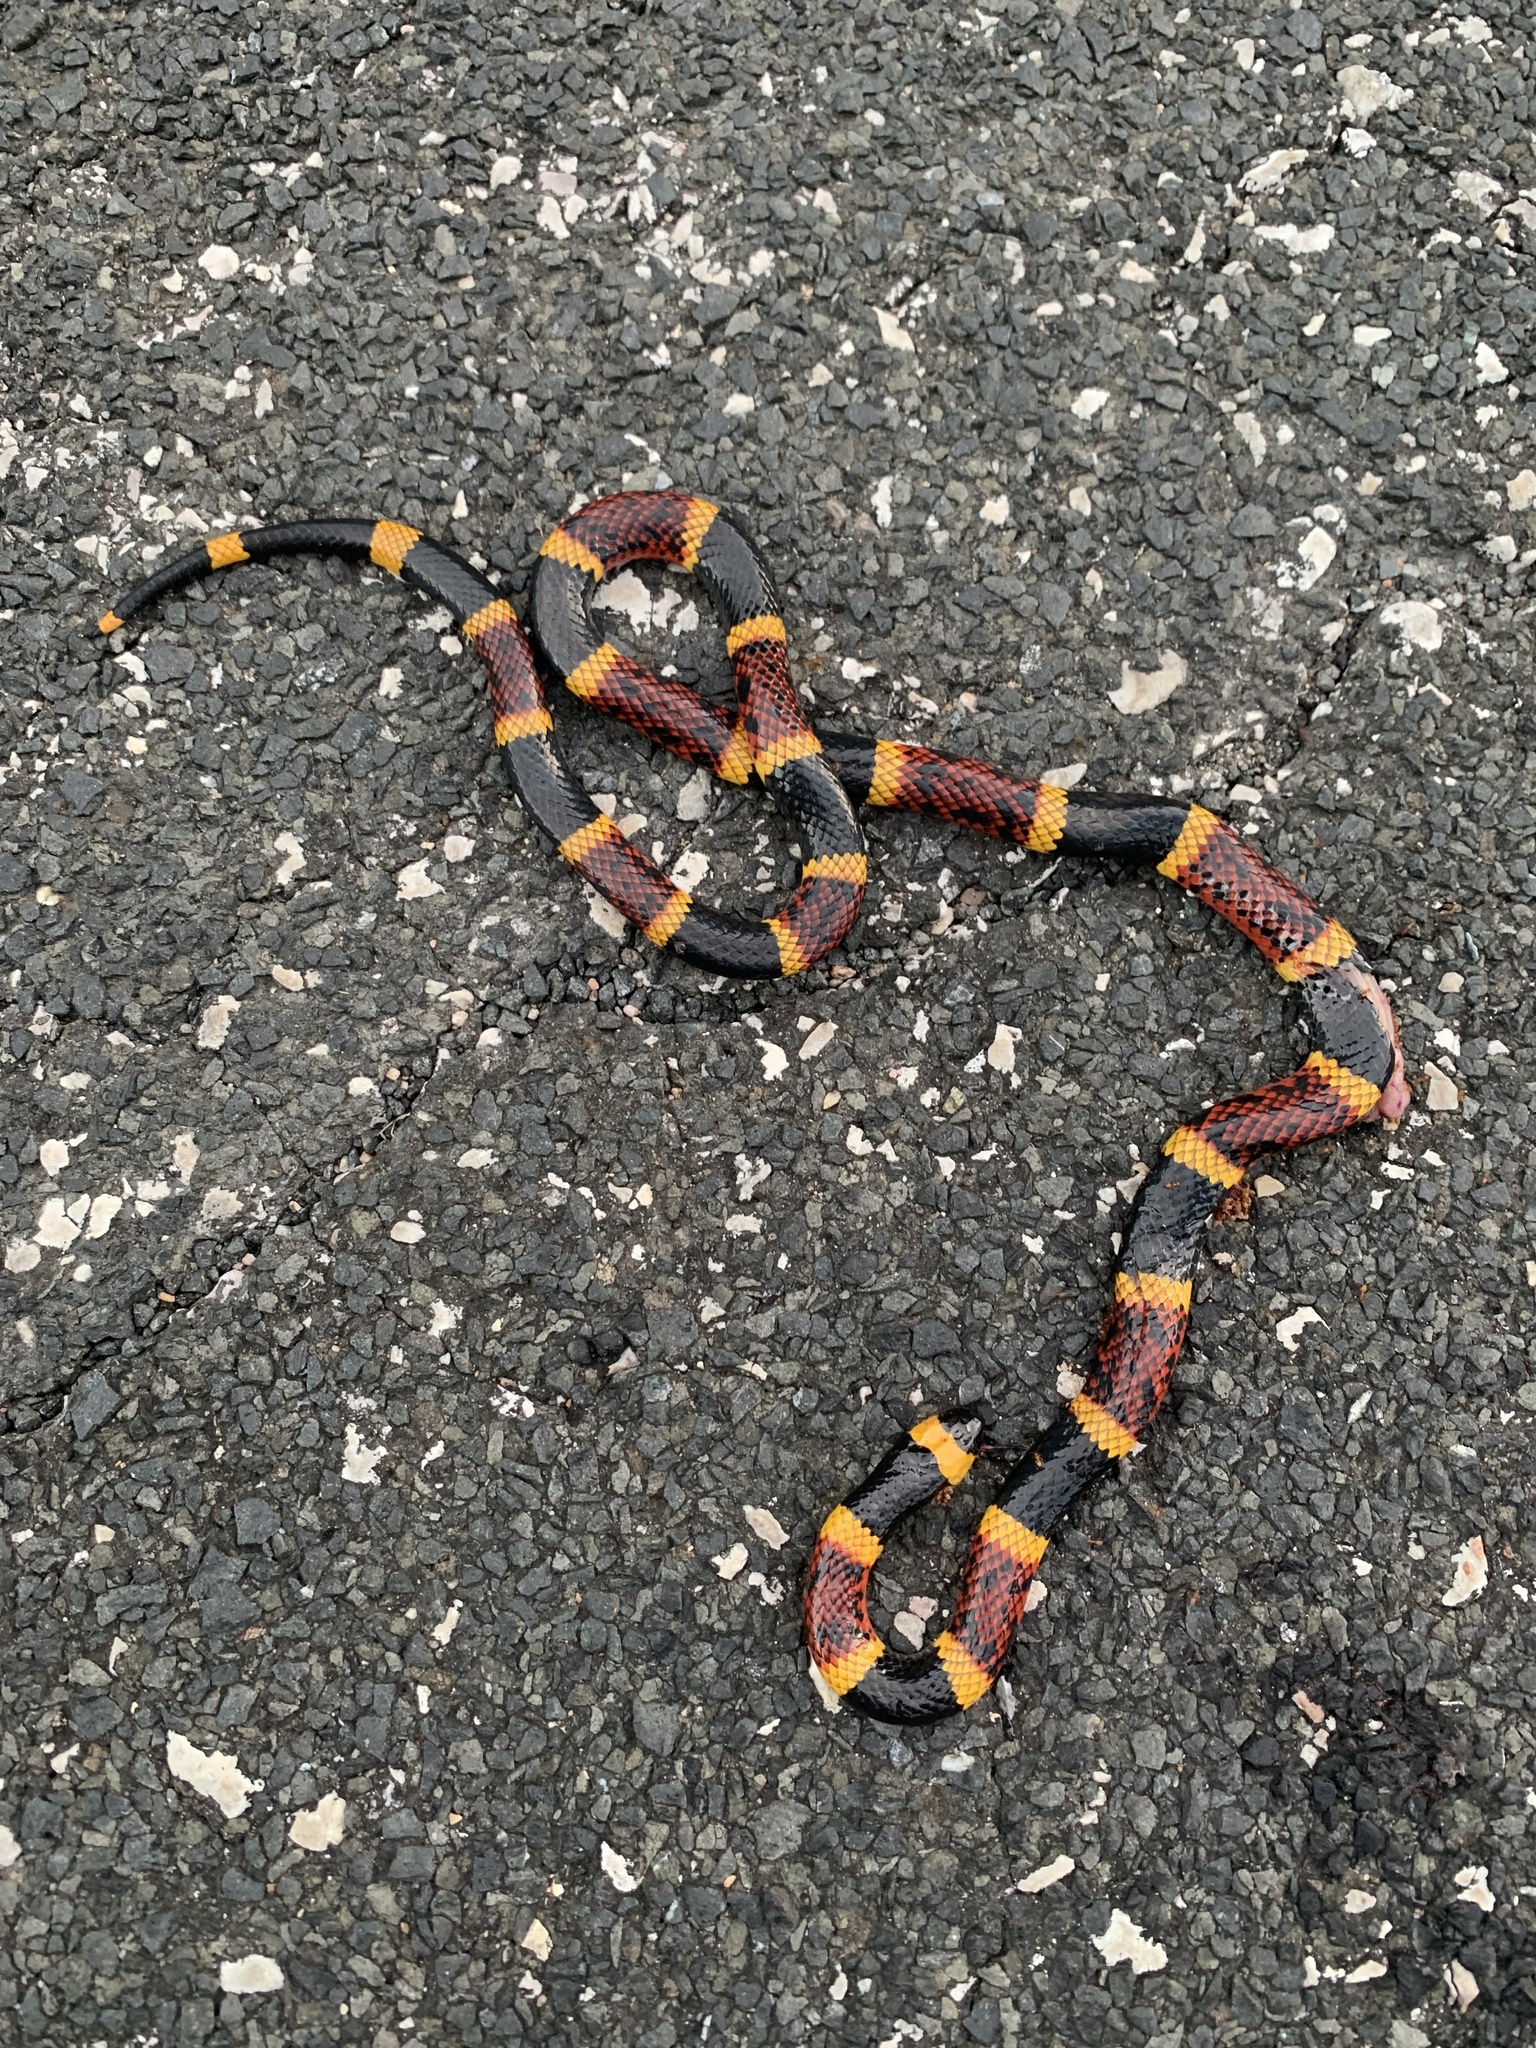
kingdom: Animalia
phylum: Chordata
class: Squamata
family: Elapidae
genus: Micrurus
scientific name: Micrurus tener
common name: Texas coral snake
